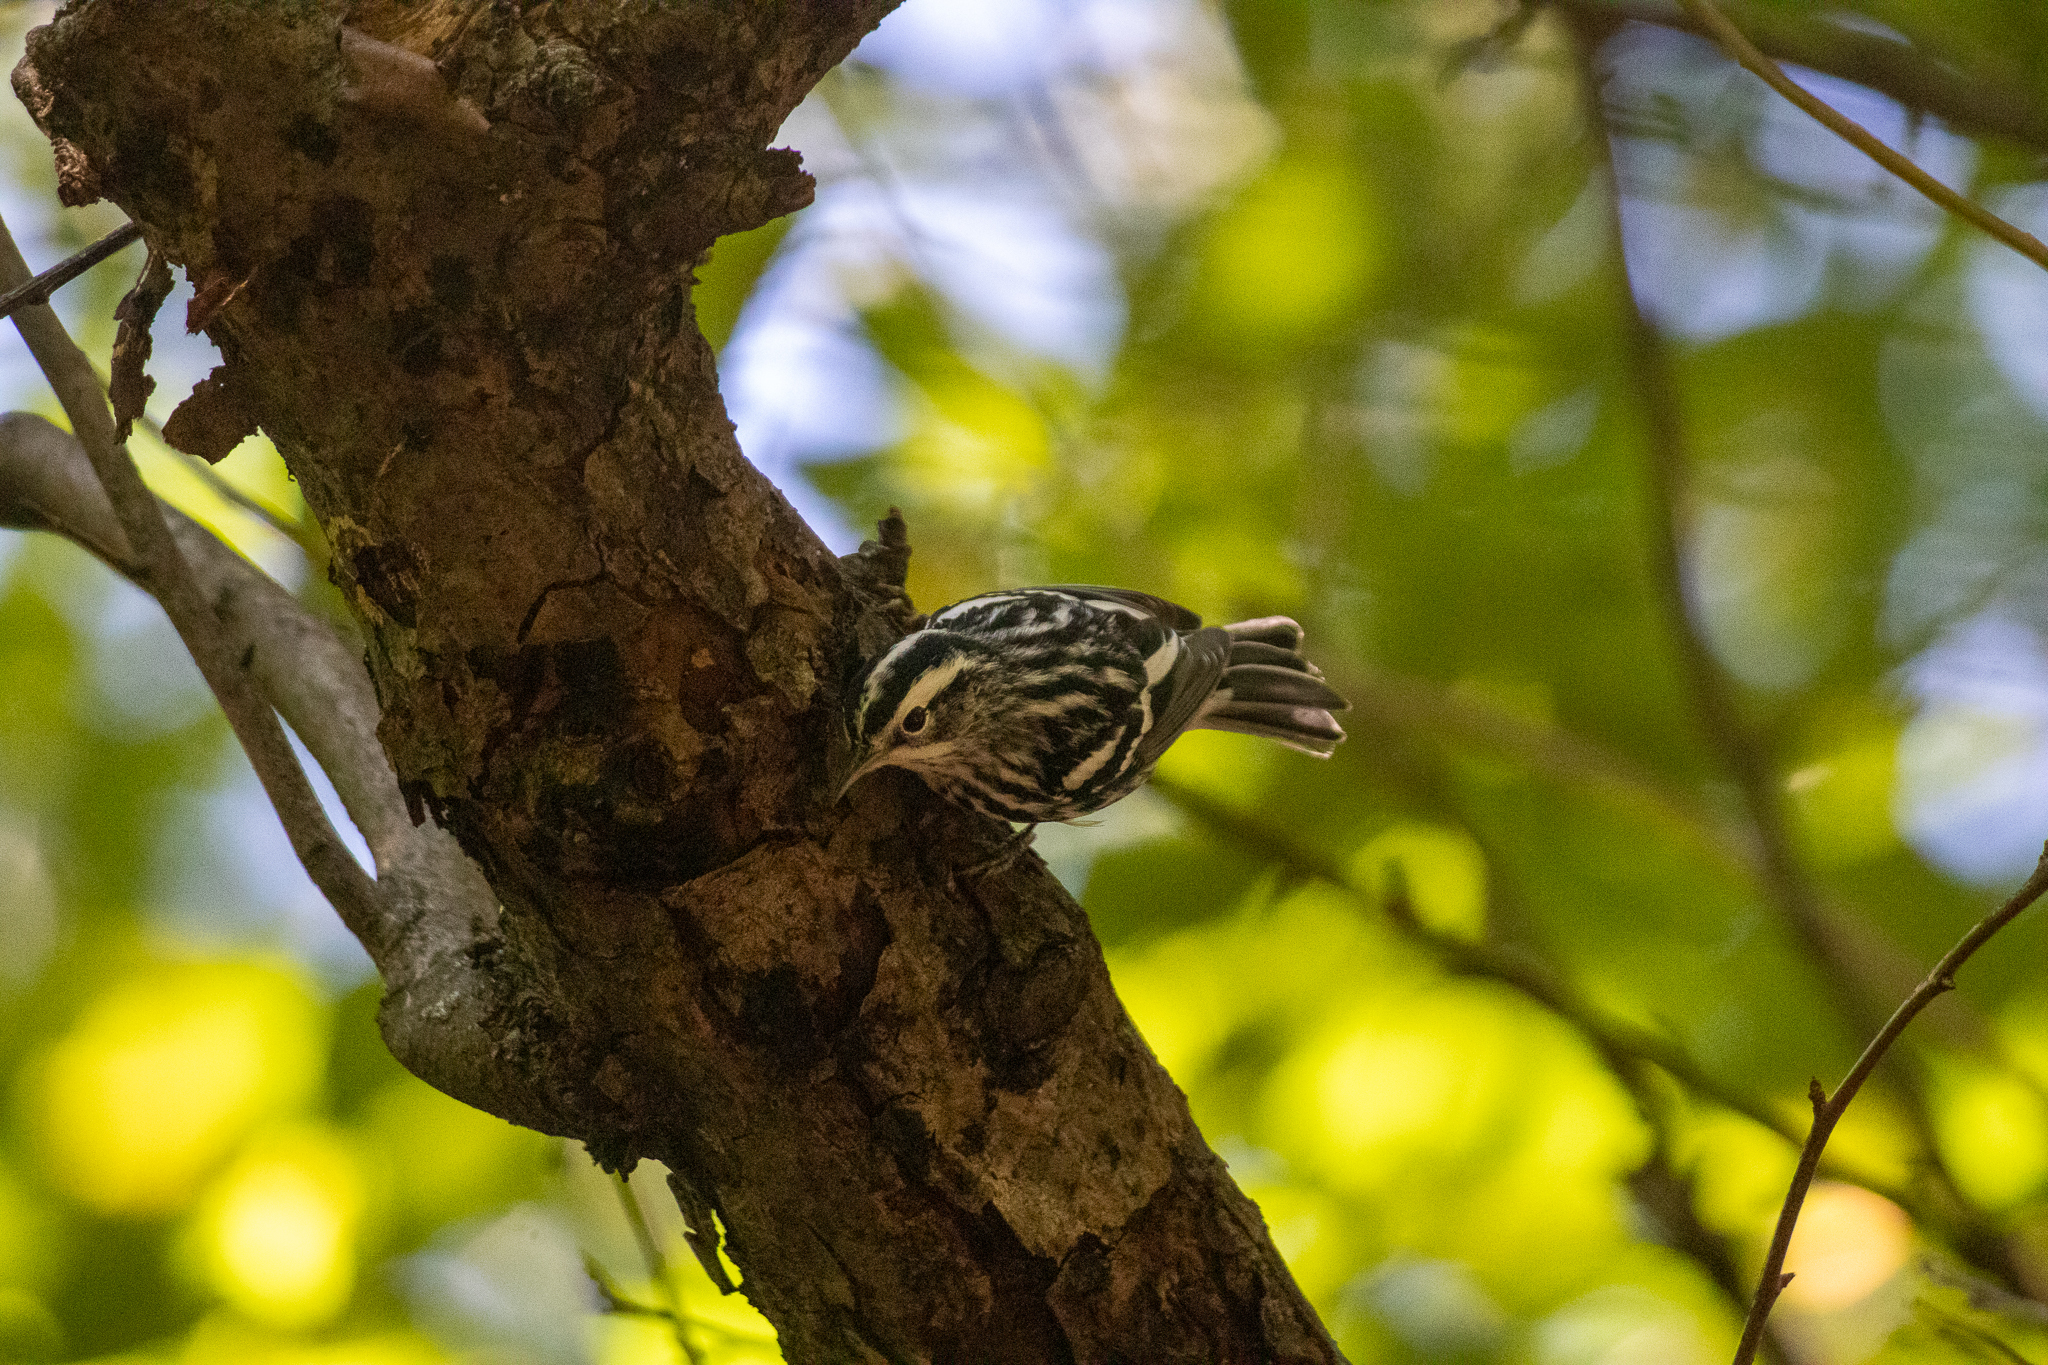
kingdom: Animalia
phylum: Chordata
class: Aves
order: Passeriformes
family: Parulidae
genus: Mniotilta
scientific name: Mniotilta varia
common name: Black-and-white warbler
